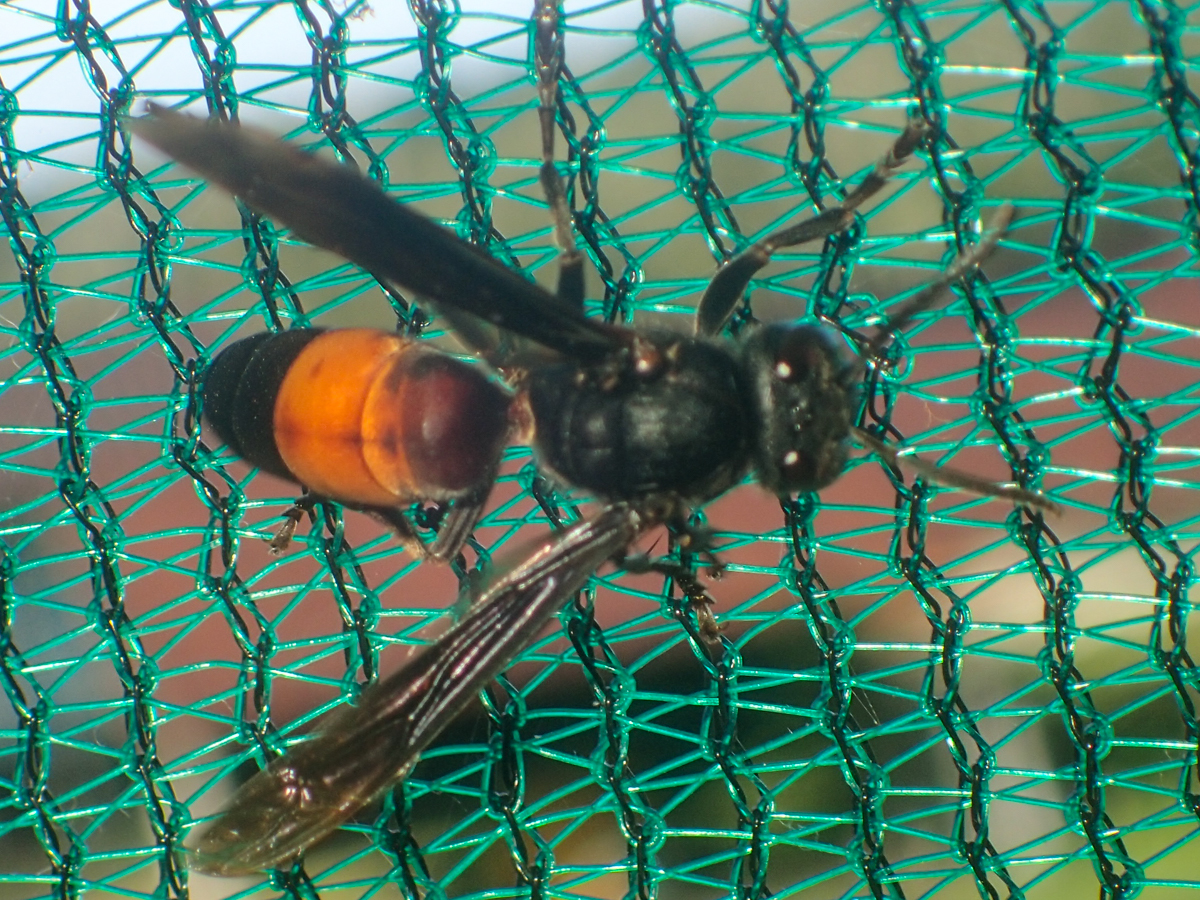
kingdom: Animalia
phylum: Arthropoda
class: Insecta
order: Hymenoptera
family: Vespidae
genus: Vespa
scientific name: Vespa affinis
